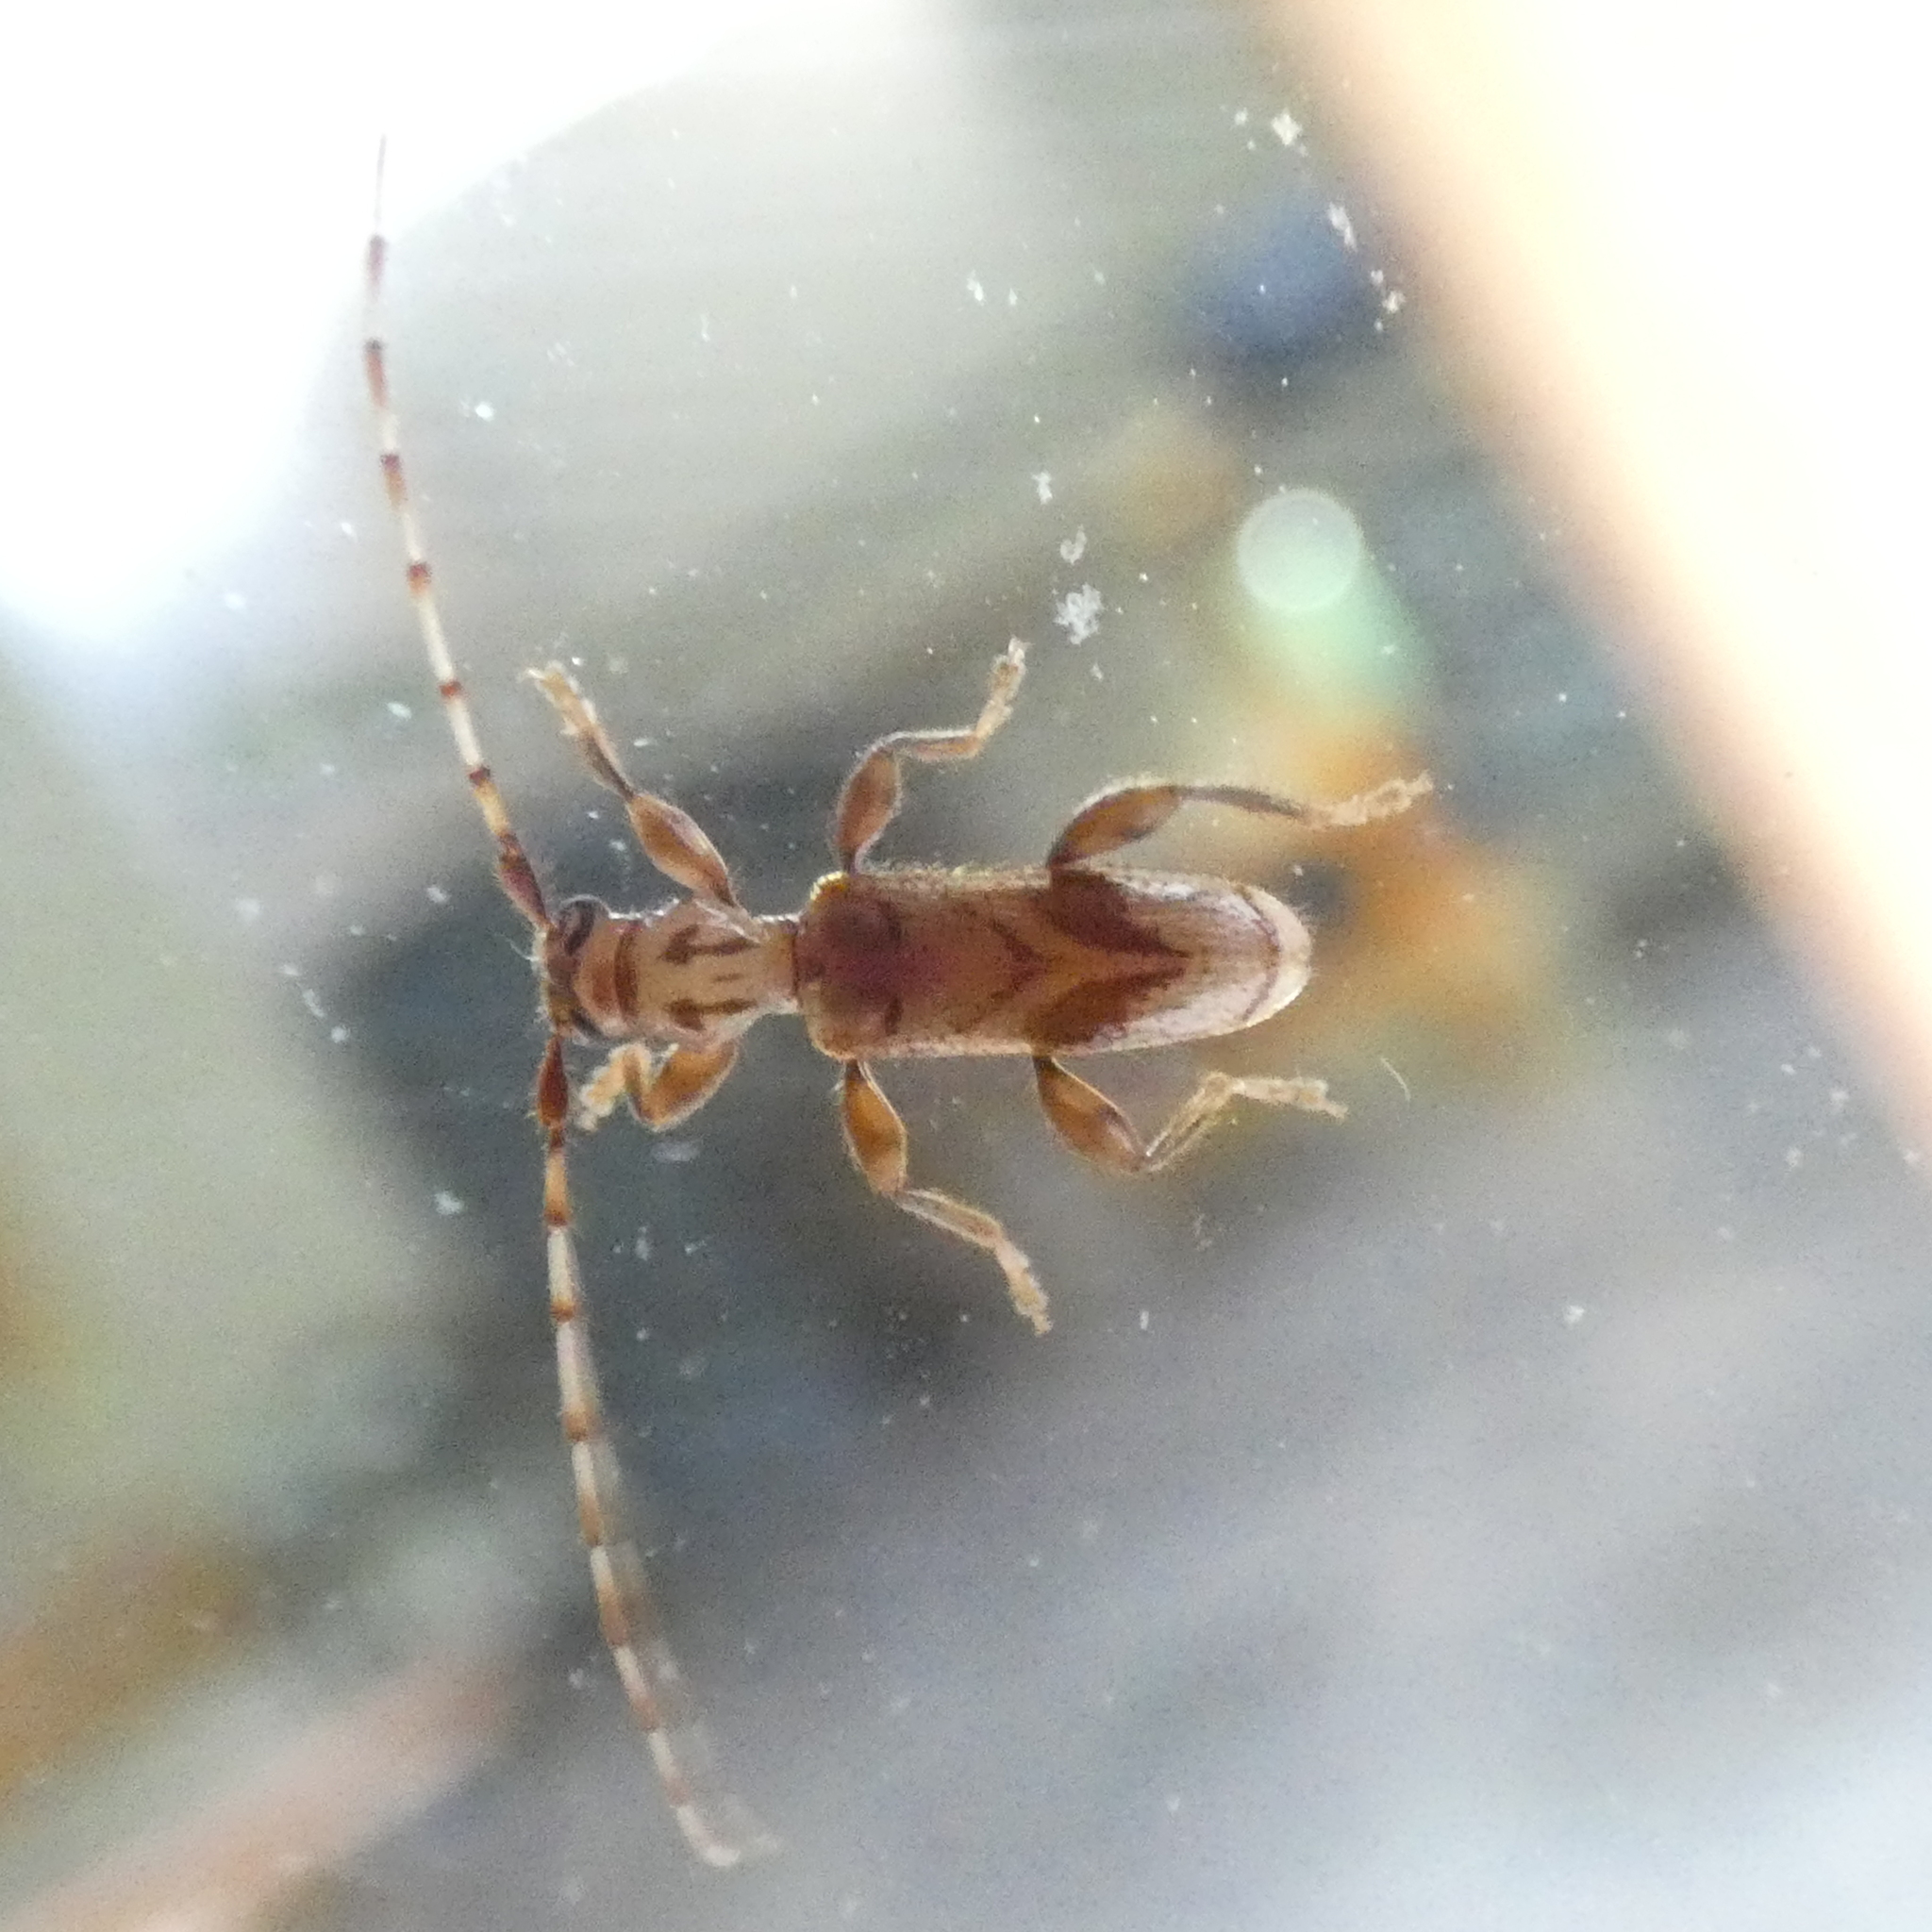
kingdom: Animalia
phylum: Arthropoda
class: Insecta
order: Coleoptera
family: Cerambycidae
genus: Obrium
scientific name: Obrium maculatum
